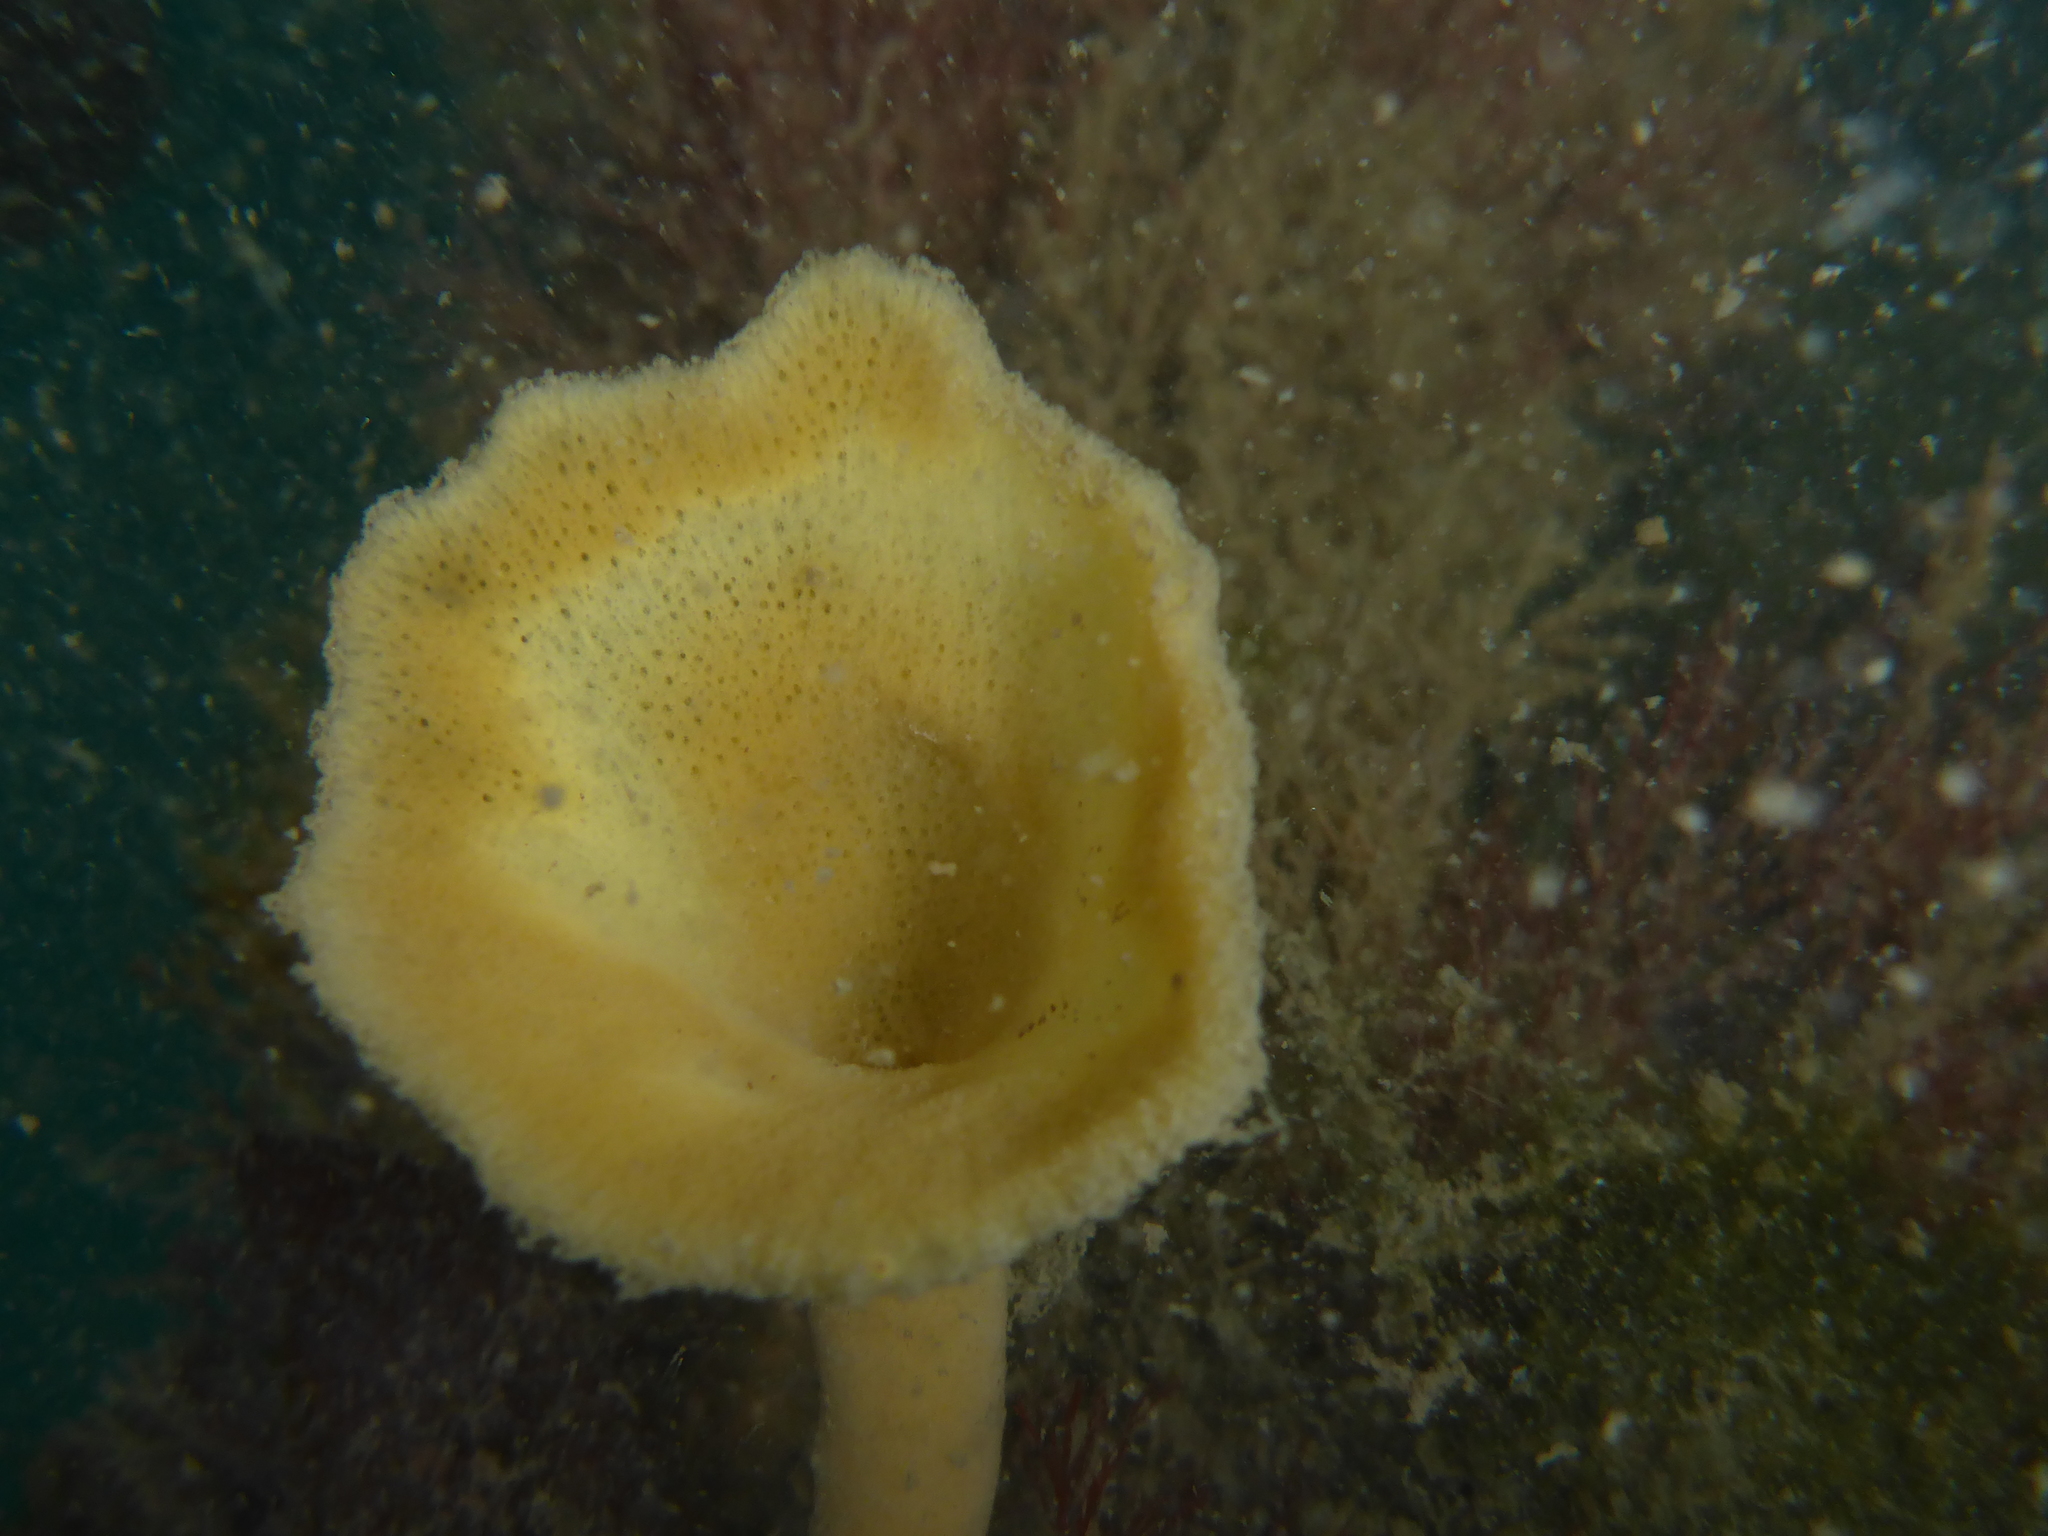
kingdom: Animalia
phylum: Porifera
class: Demospongiae
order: Poecilosclerida
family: Esperiopsidae
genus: Semisuberites
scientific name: Semisuberites cribrosa
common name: Lacy horny sponge
